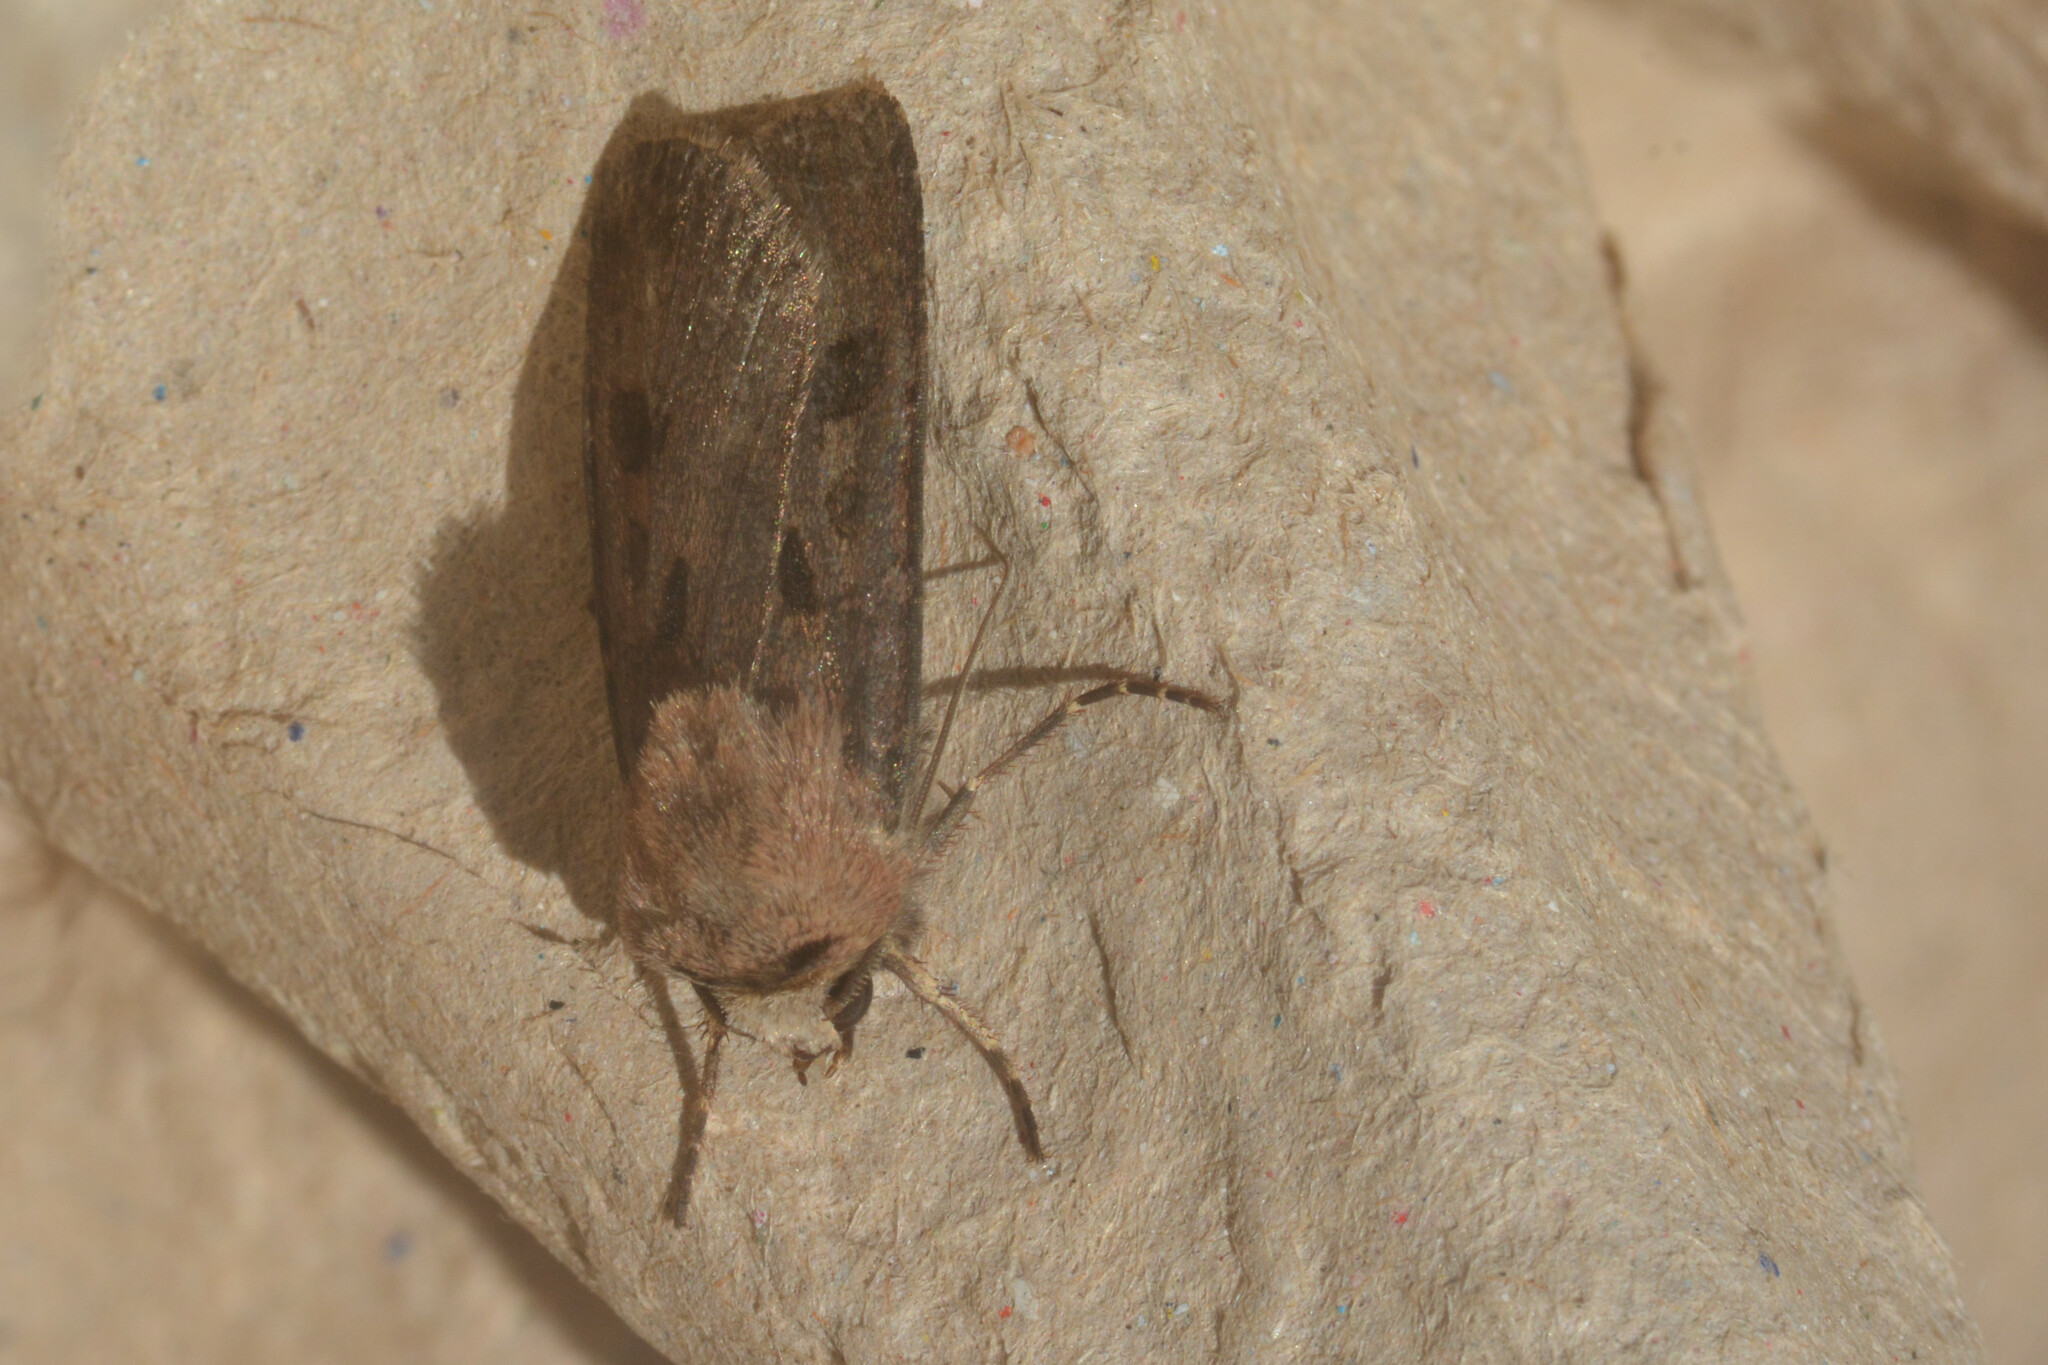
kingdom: Animalia
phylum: Arthropoda
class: Insecta
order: Lepidoptera
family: Noctuidae
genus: Agrotis
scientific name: Agrotis exclamationis
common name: Heart and dart
